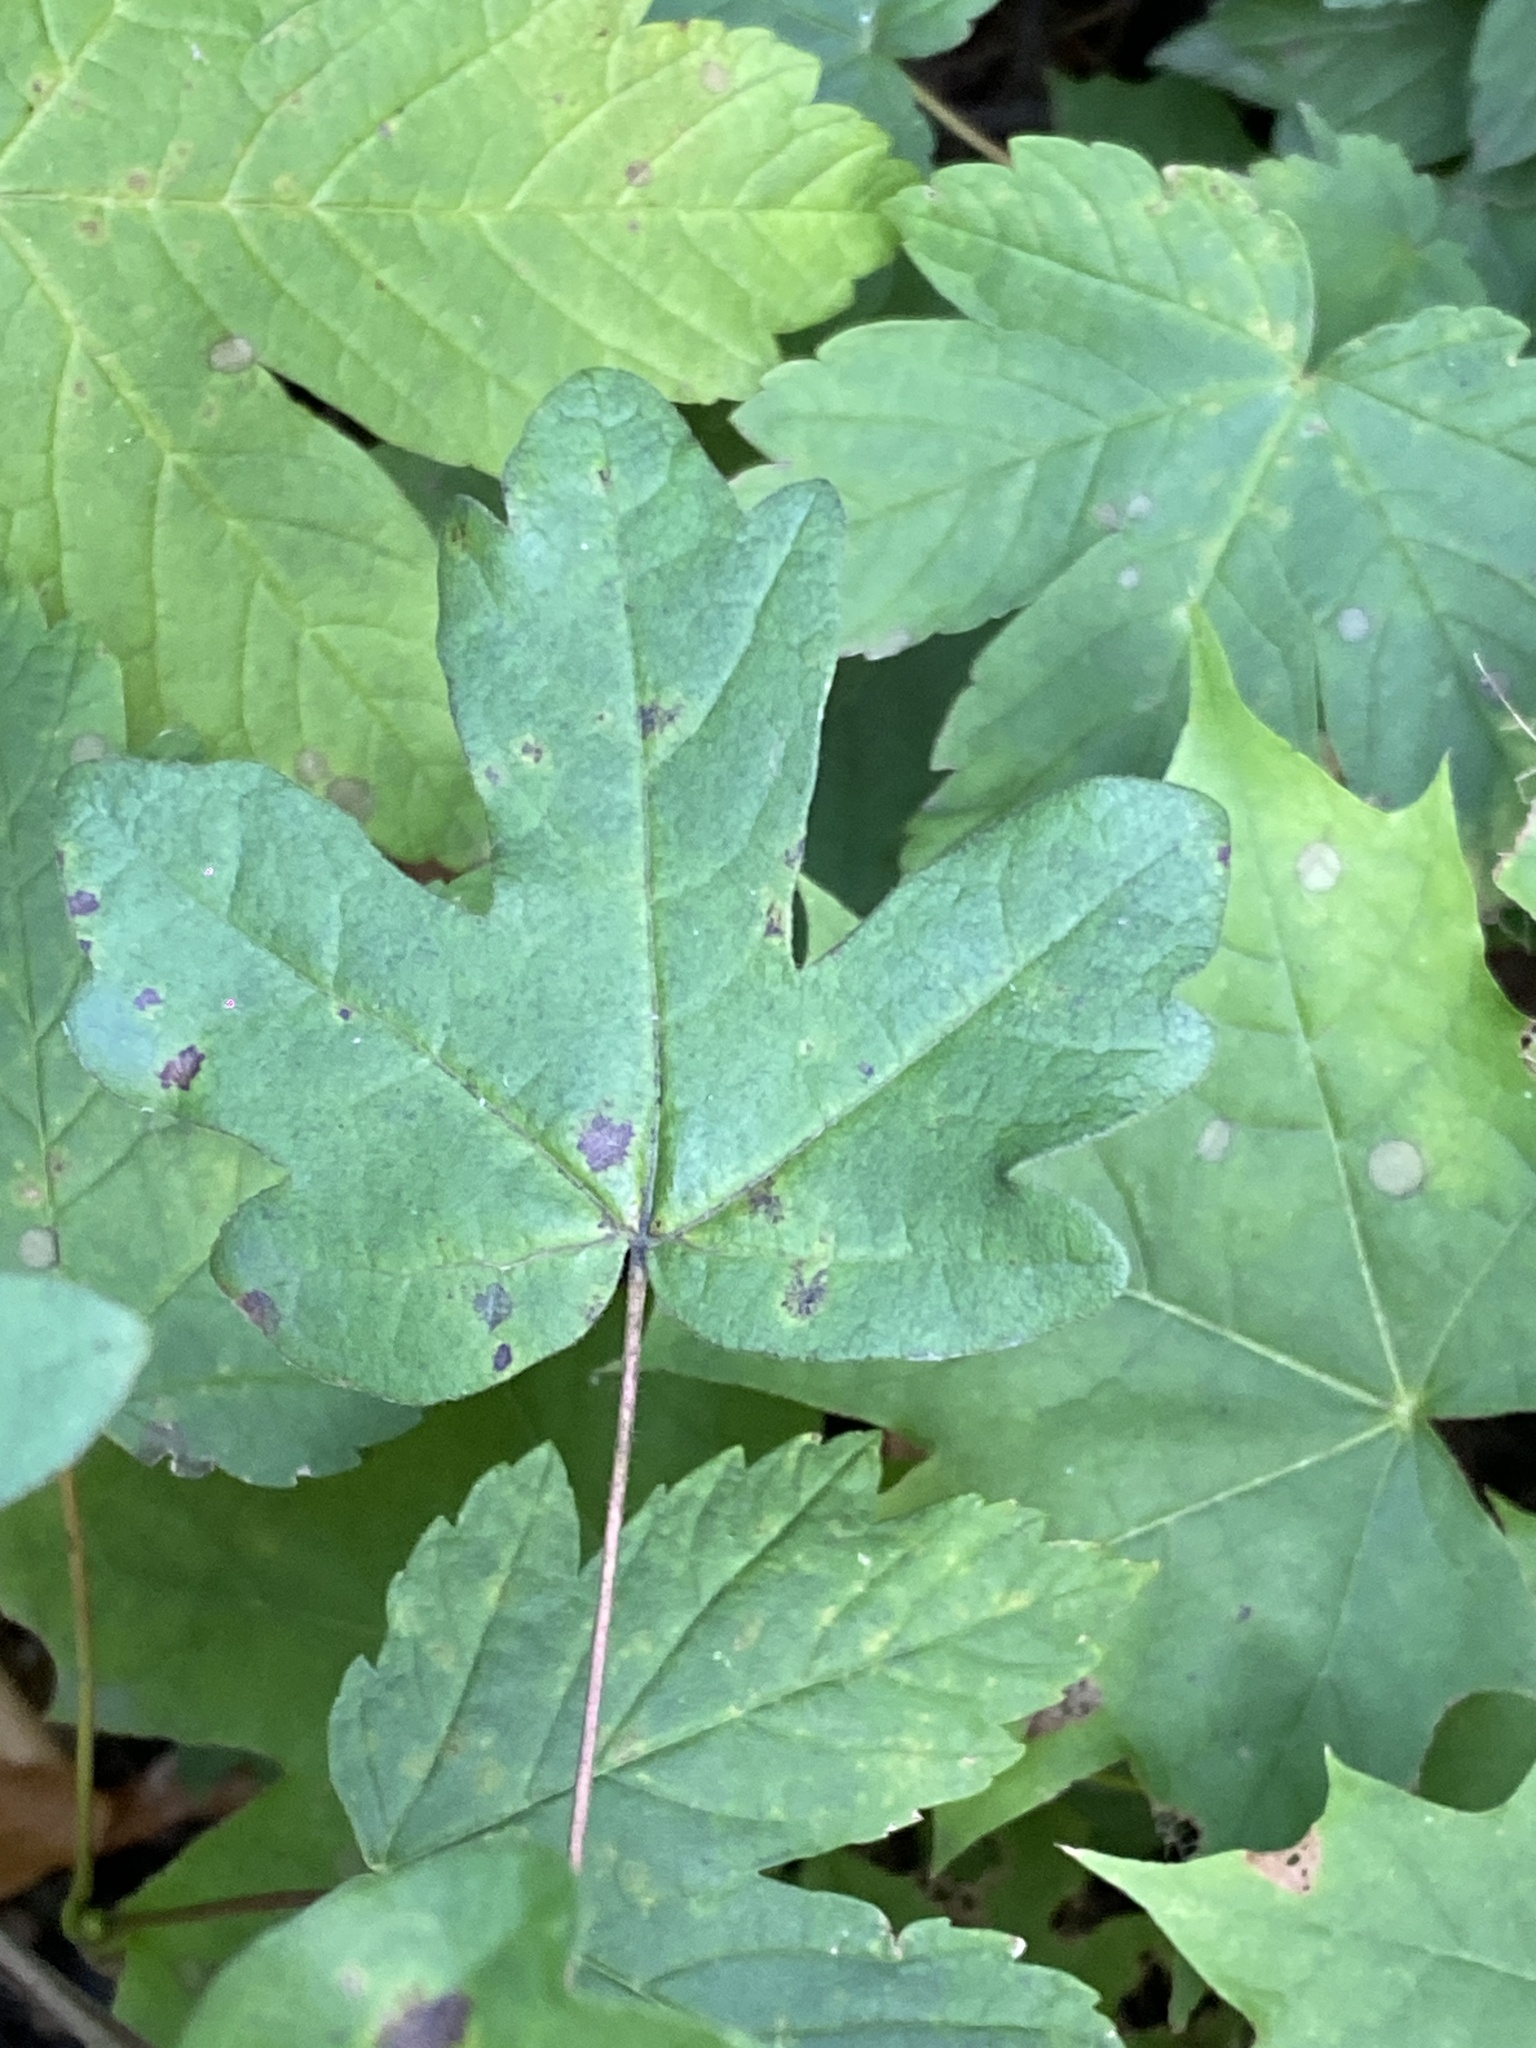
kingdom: Plantae
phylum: Tracheophyta
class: Magnoliopsida
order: Sapindales
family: Sapindaceae
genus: Acer
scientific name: Acer campestre
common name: Field maple
